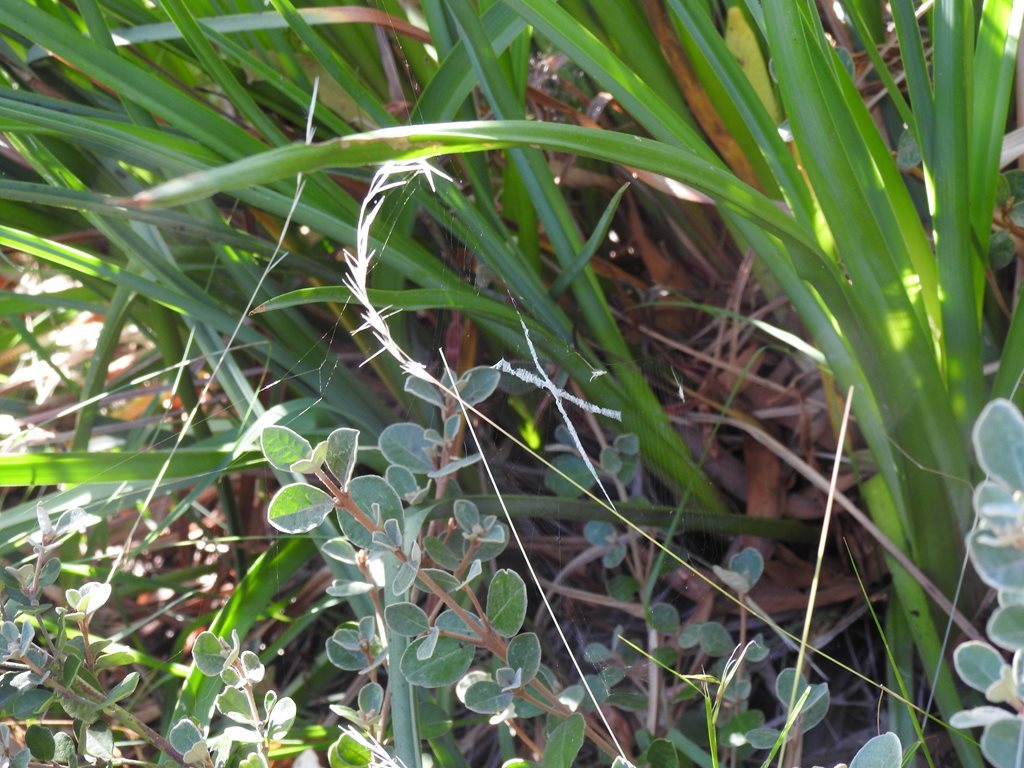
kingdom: Animalia
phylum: Arthropoda
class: Arachnida
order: Araneae
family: Araneidae
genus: Argiope
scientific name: Argiope keyserlingi
